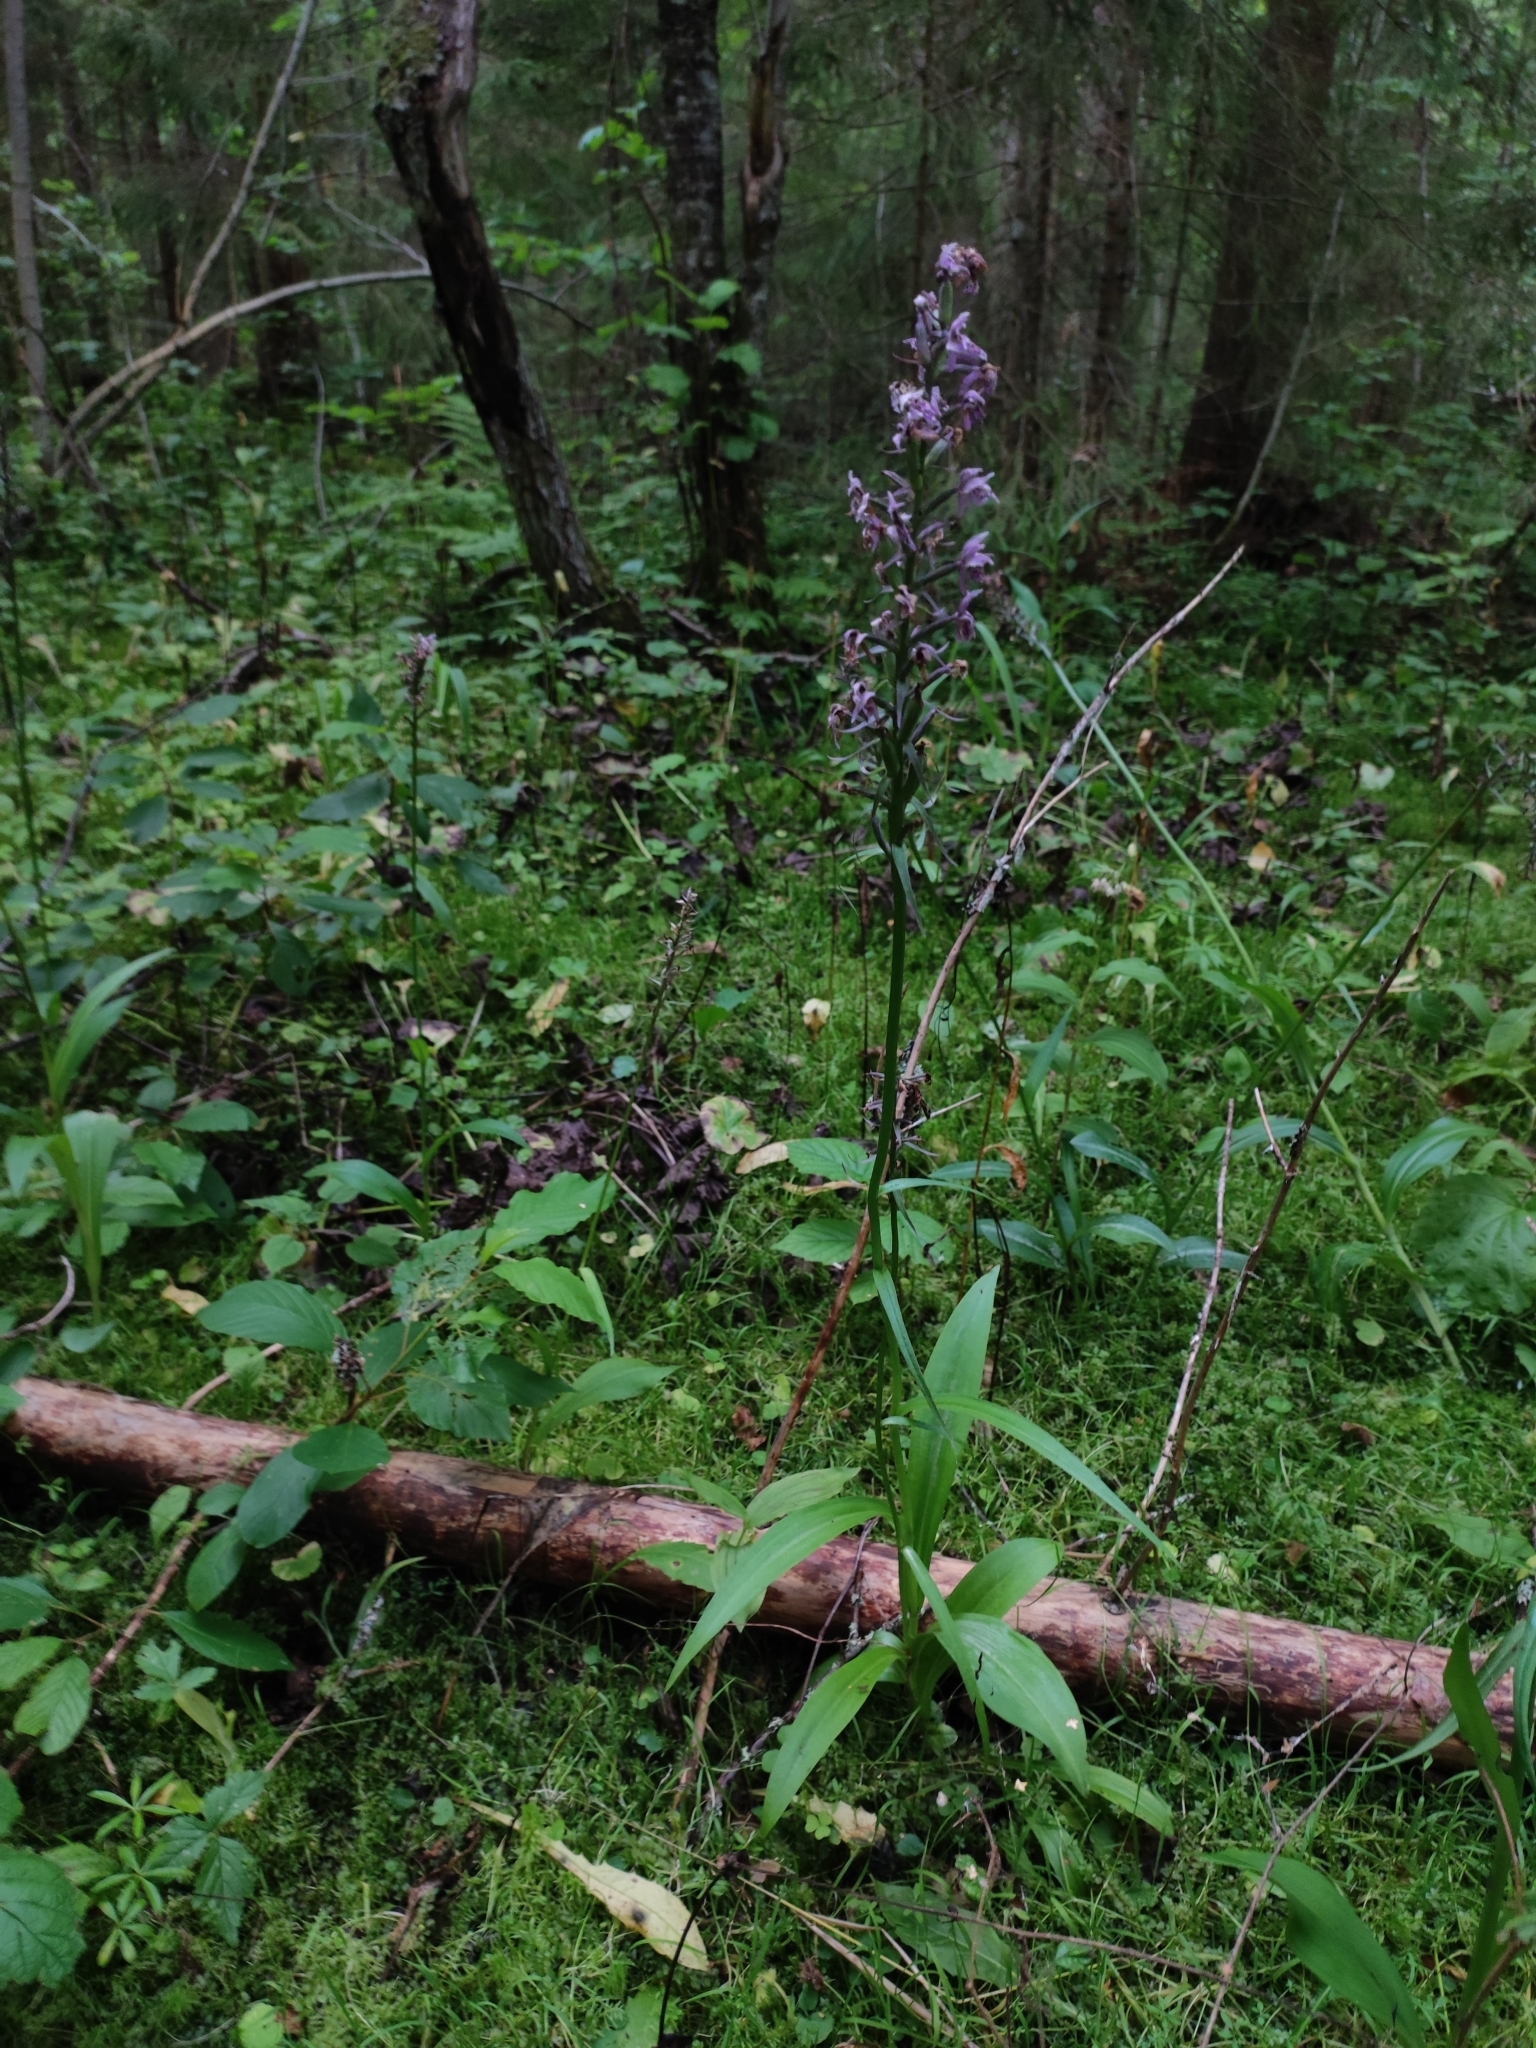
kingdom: Plantae
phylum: Tracheophyta
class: Liliopsida
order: Asparagales
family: Orchidaceae
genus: Dactylorhiza
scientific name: Dactylorhiza maculata
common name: Heath spotted-orchid
